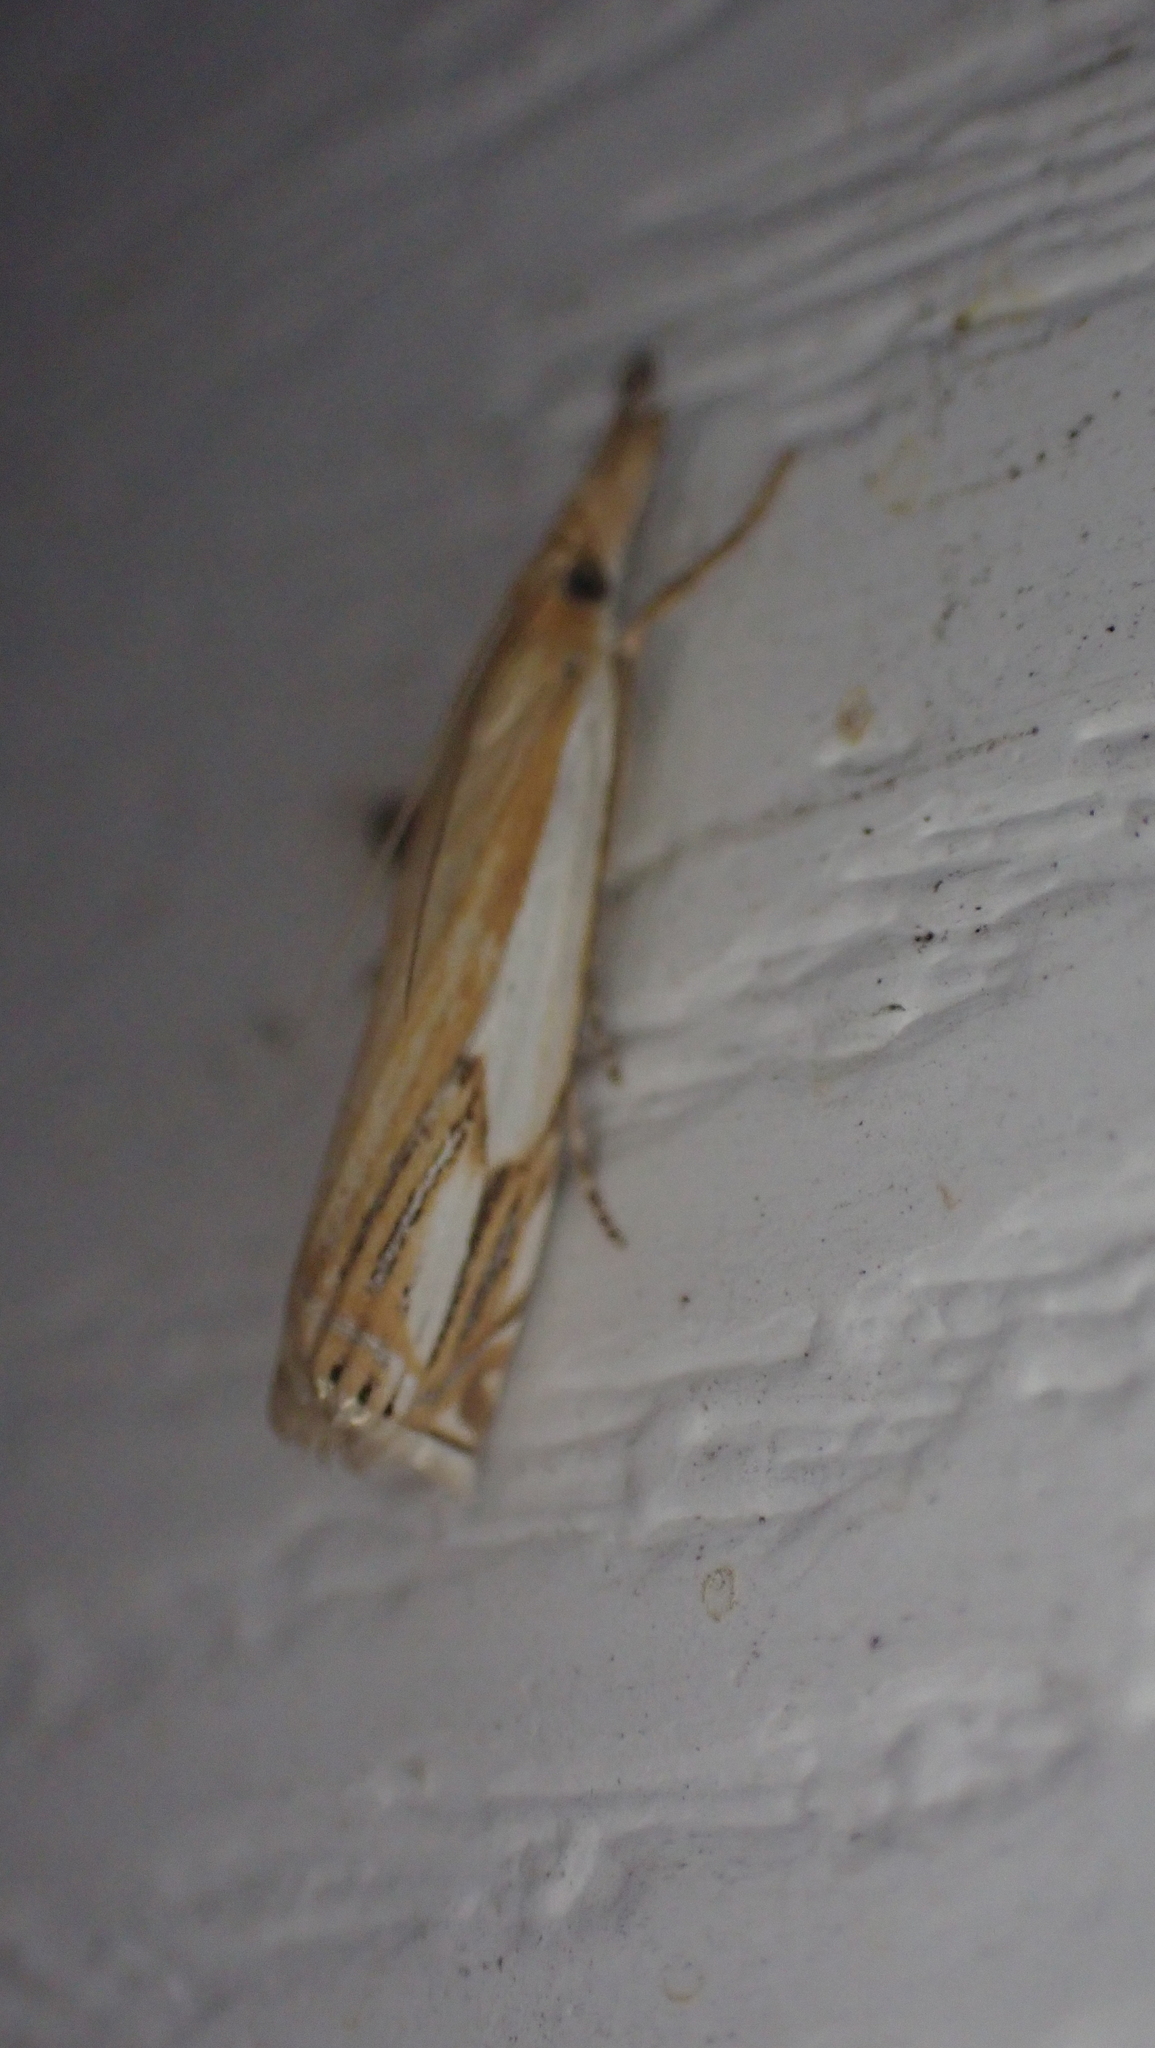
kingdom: Animalia
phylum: Arthropoda
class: Insecta
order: Lepidoptera
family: Crambidae
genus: Crambus
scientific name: Crambus agitatellus
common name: Double-banded grass-veneer
